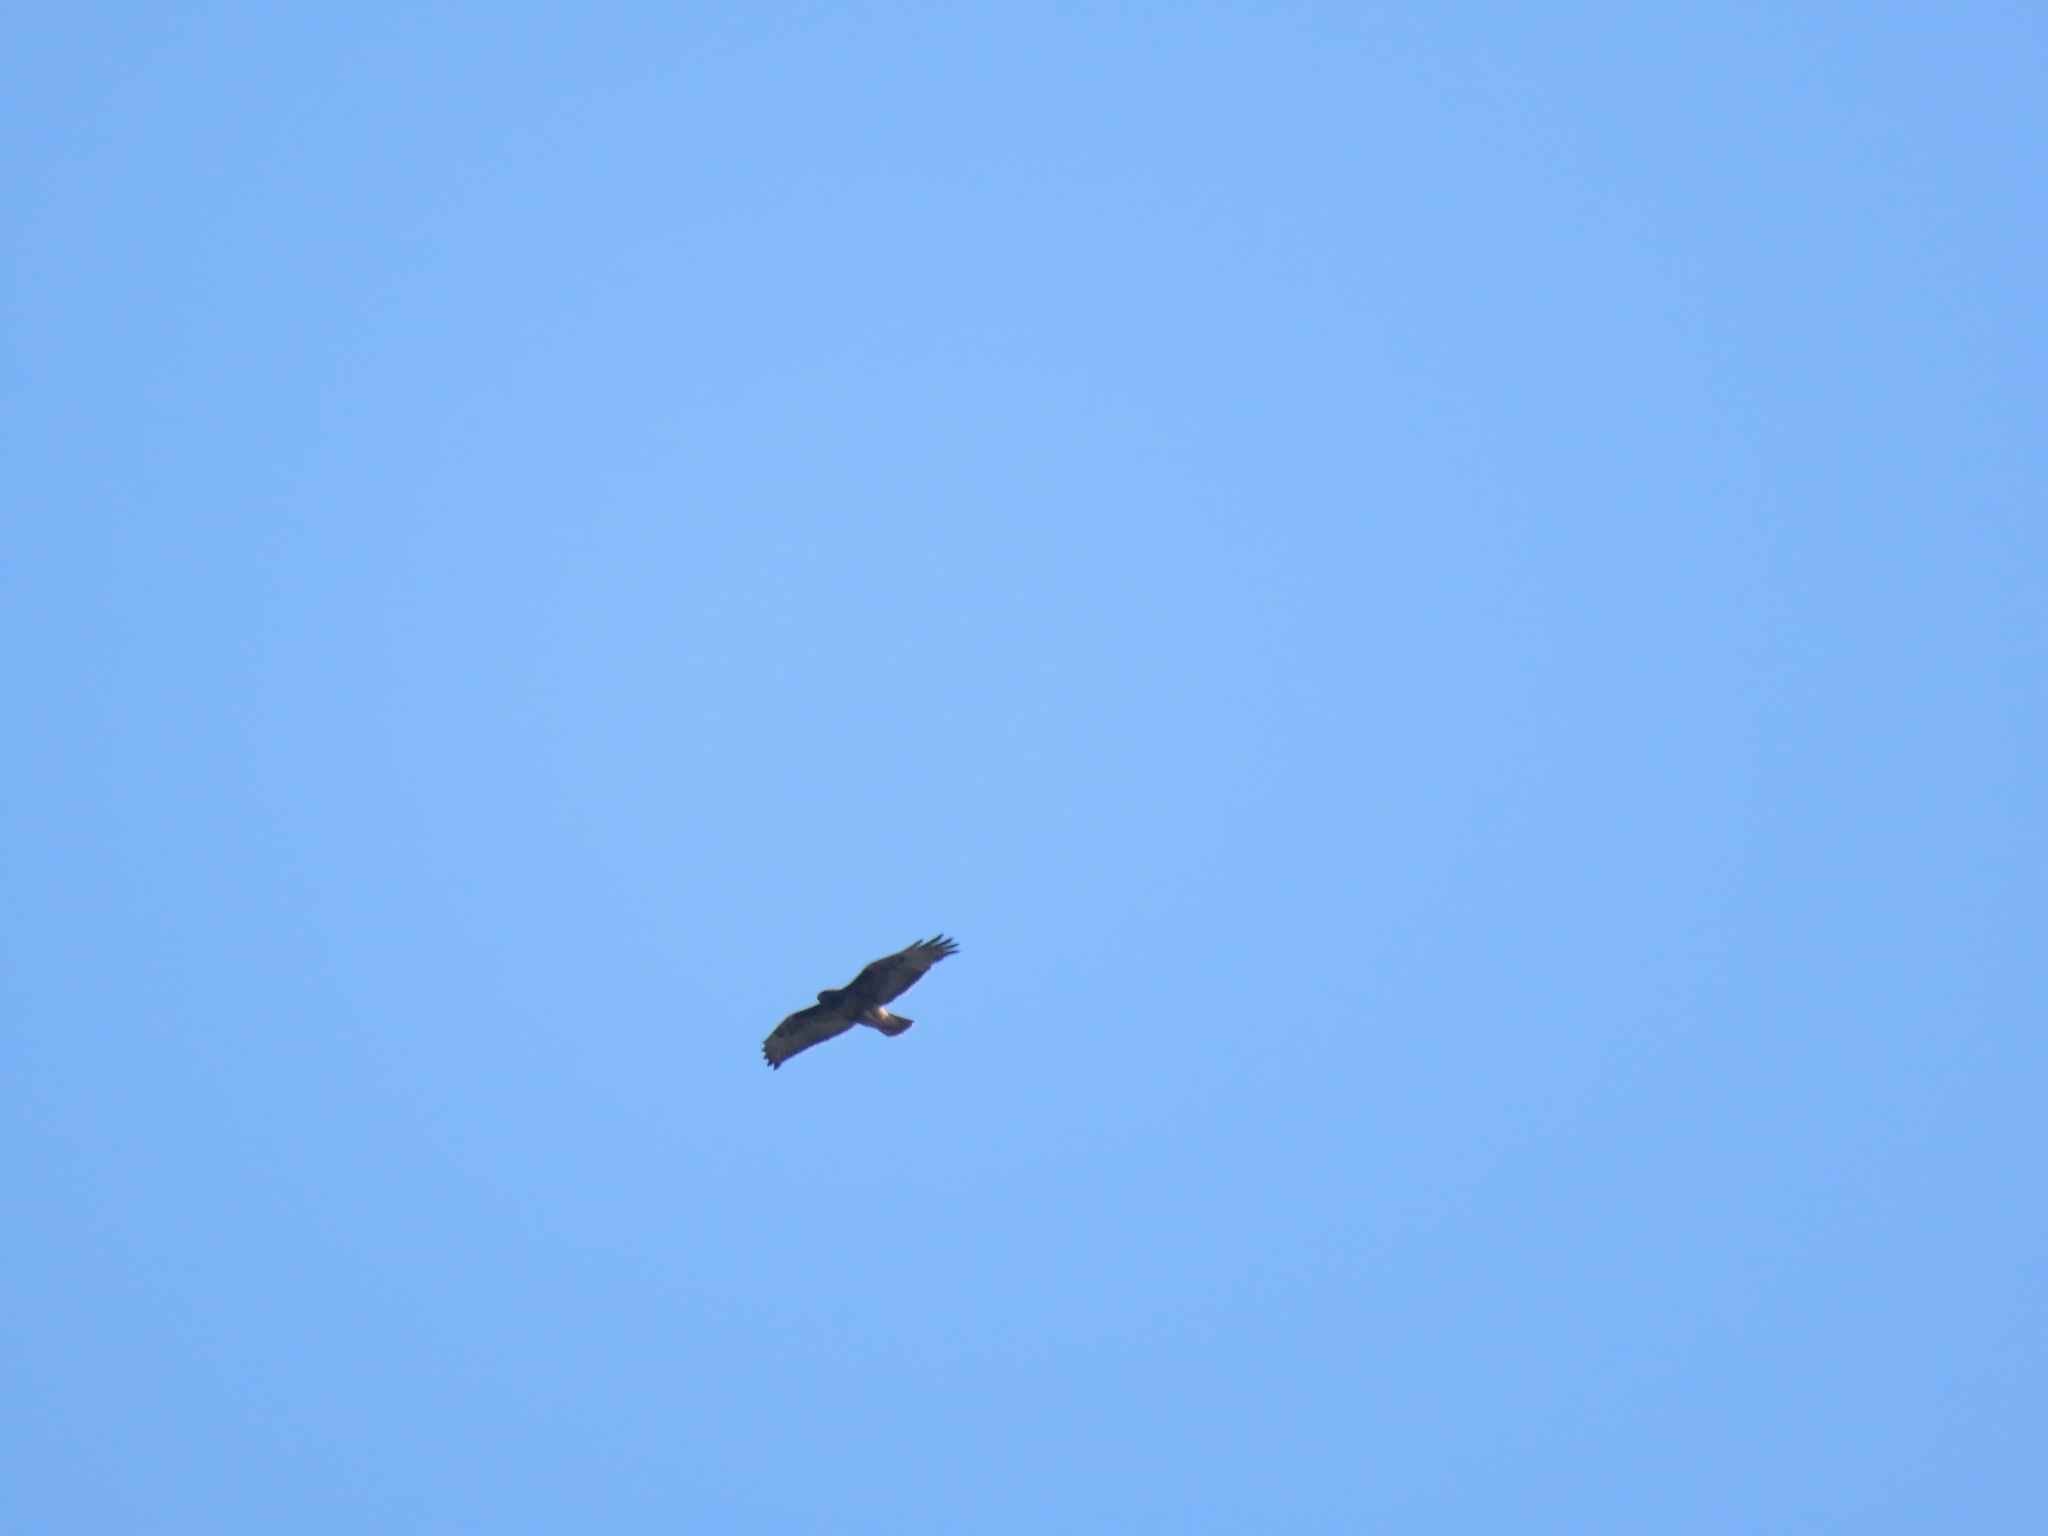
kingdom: Animalia
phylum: Chordata
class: Aves
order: Accipitriformes
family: Accipitridae
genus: Buteo
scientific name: Buteo jamaicensis
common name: Red-tailed hawk
